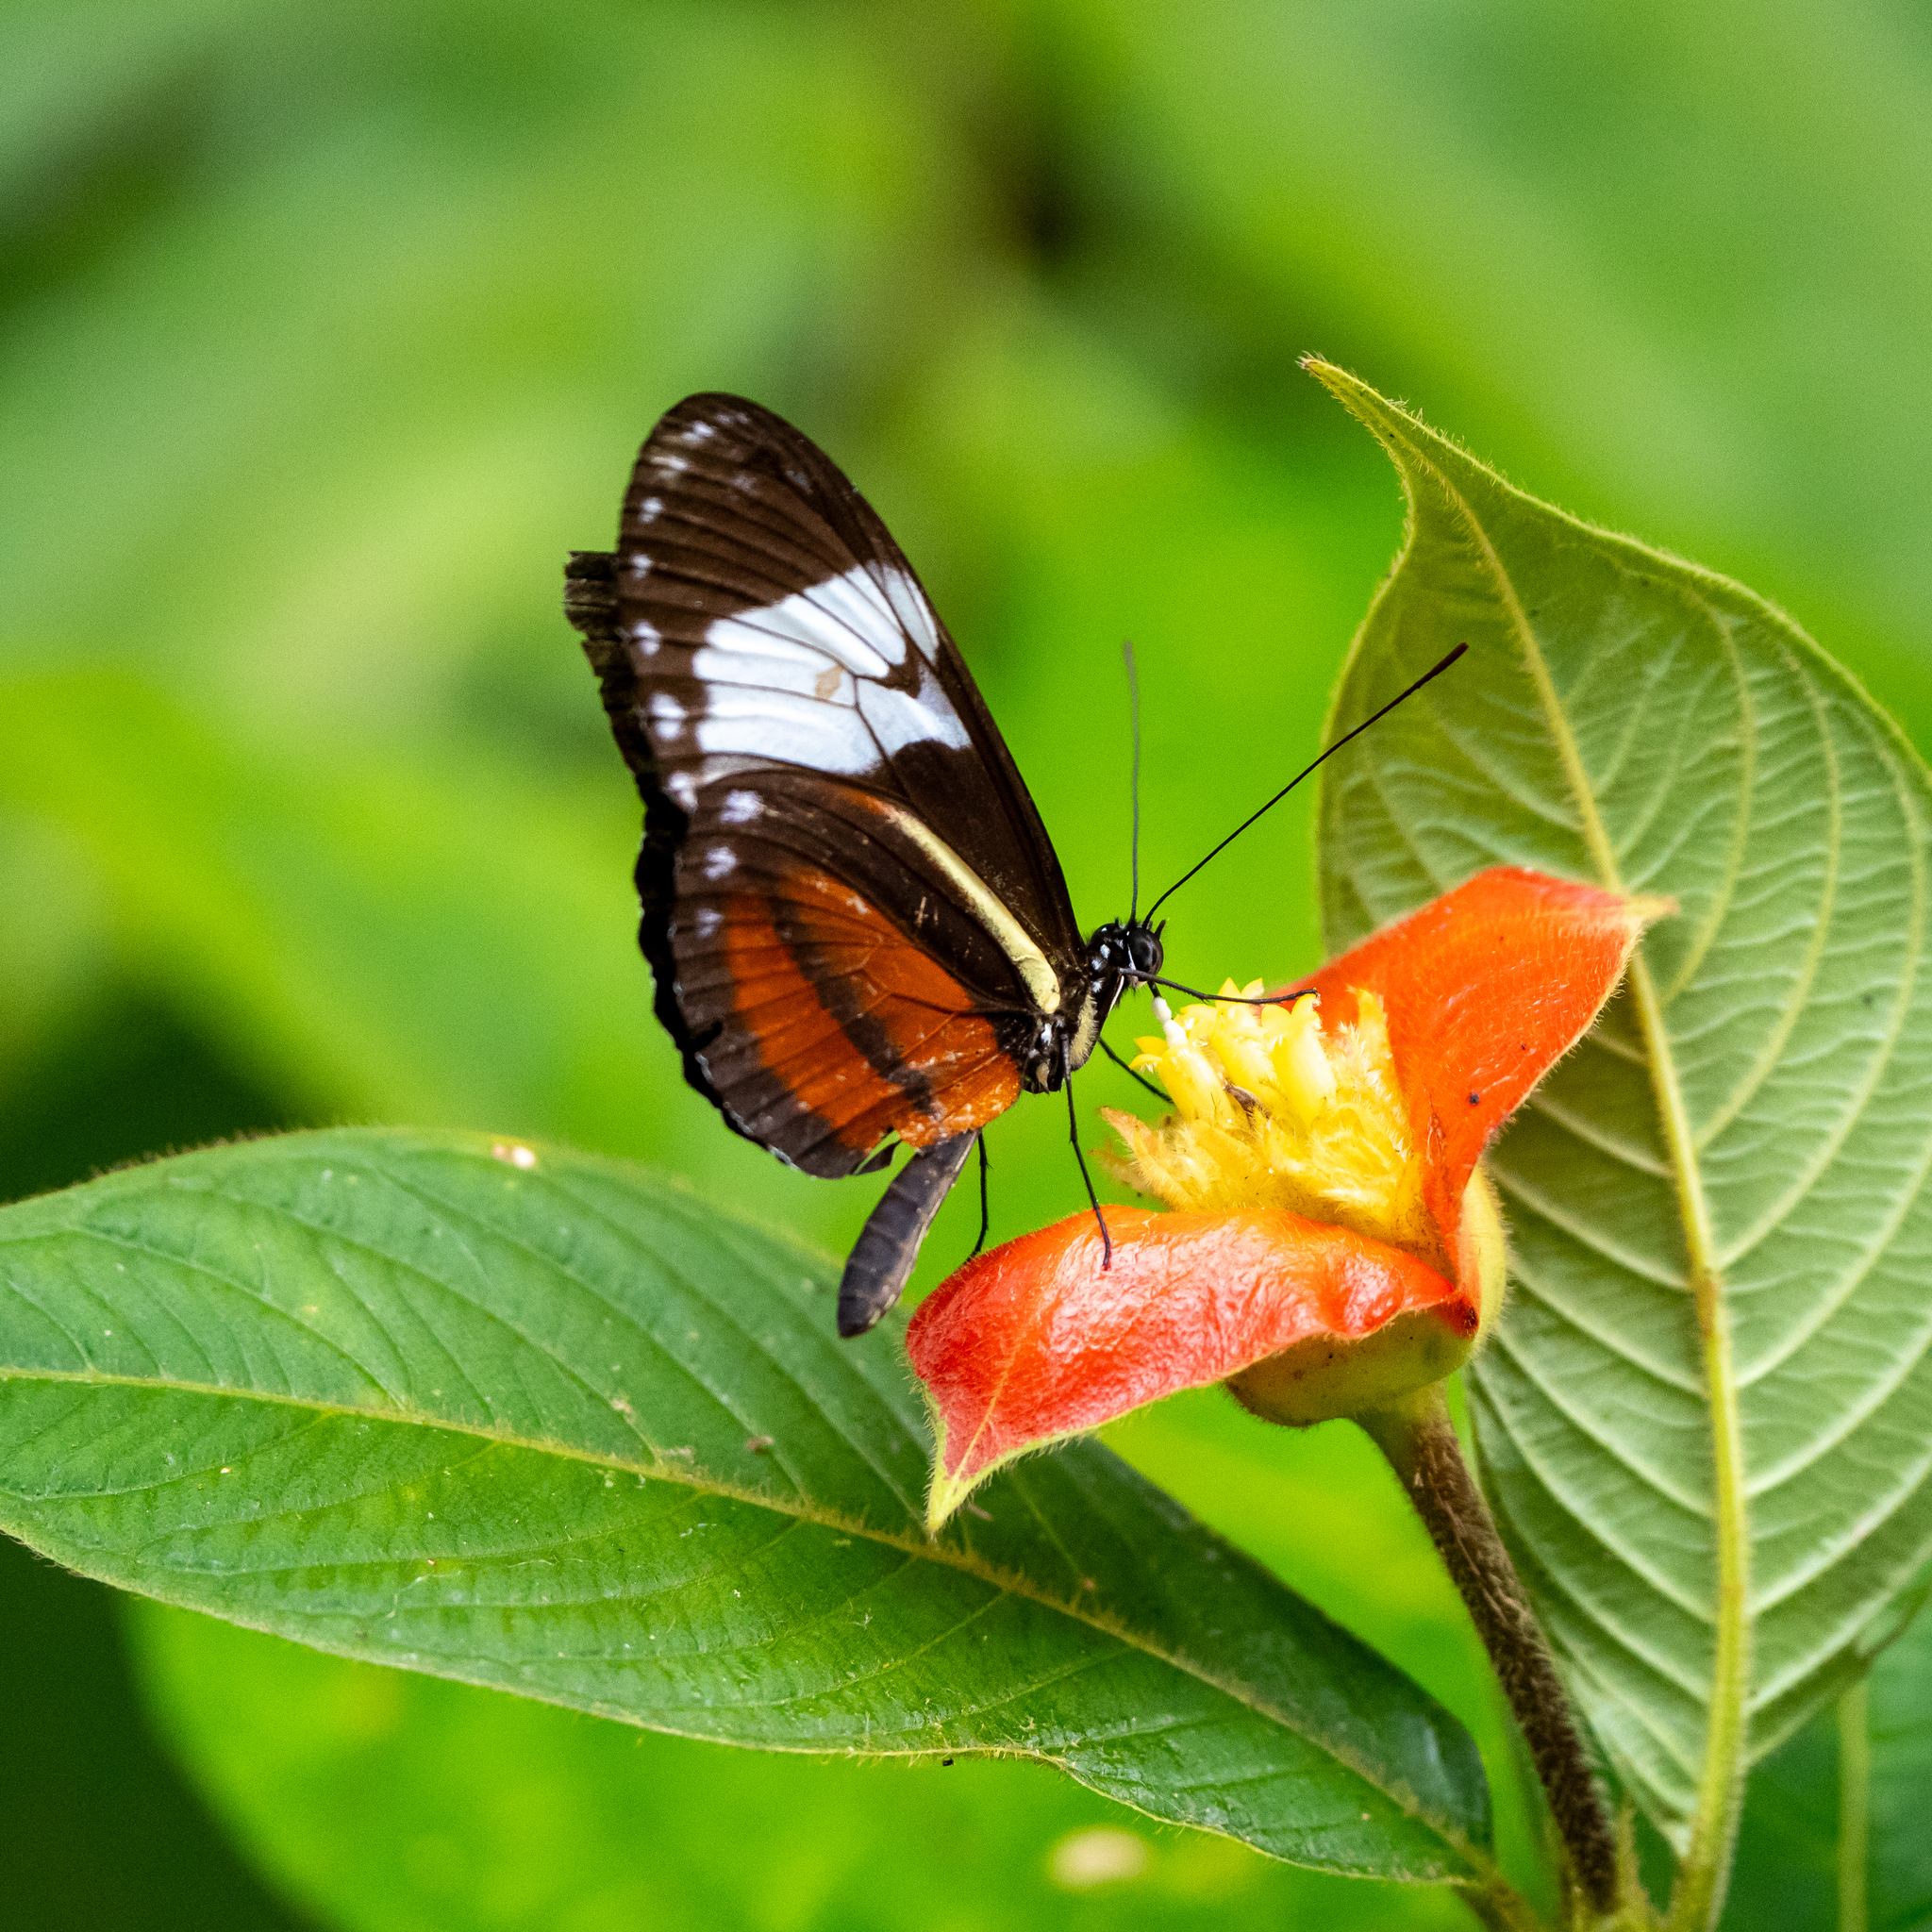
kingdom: Animalia
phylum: Arthropoda
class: Insecta
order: Lepidoptera
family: Nymphalidae
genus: Heliconius
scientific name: Heliconius cydno
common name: Cydno longwing
